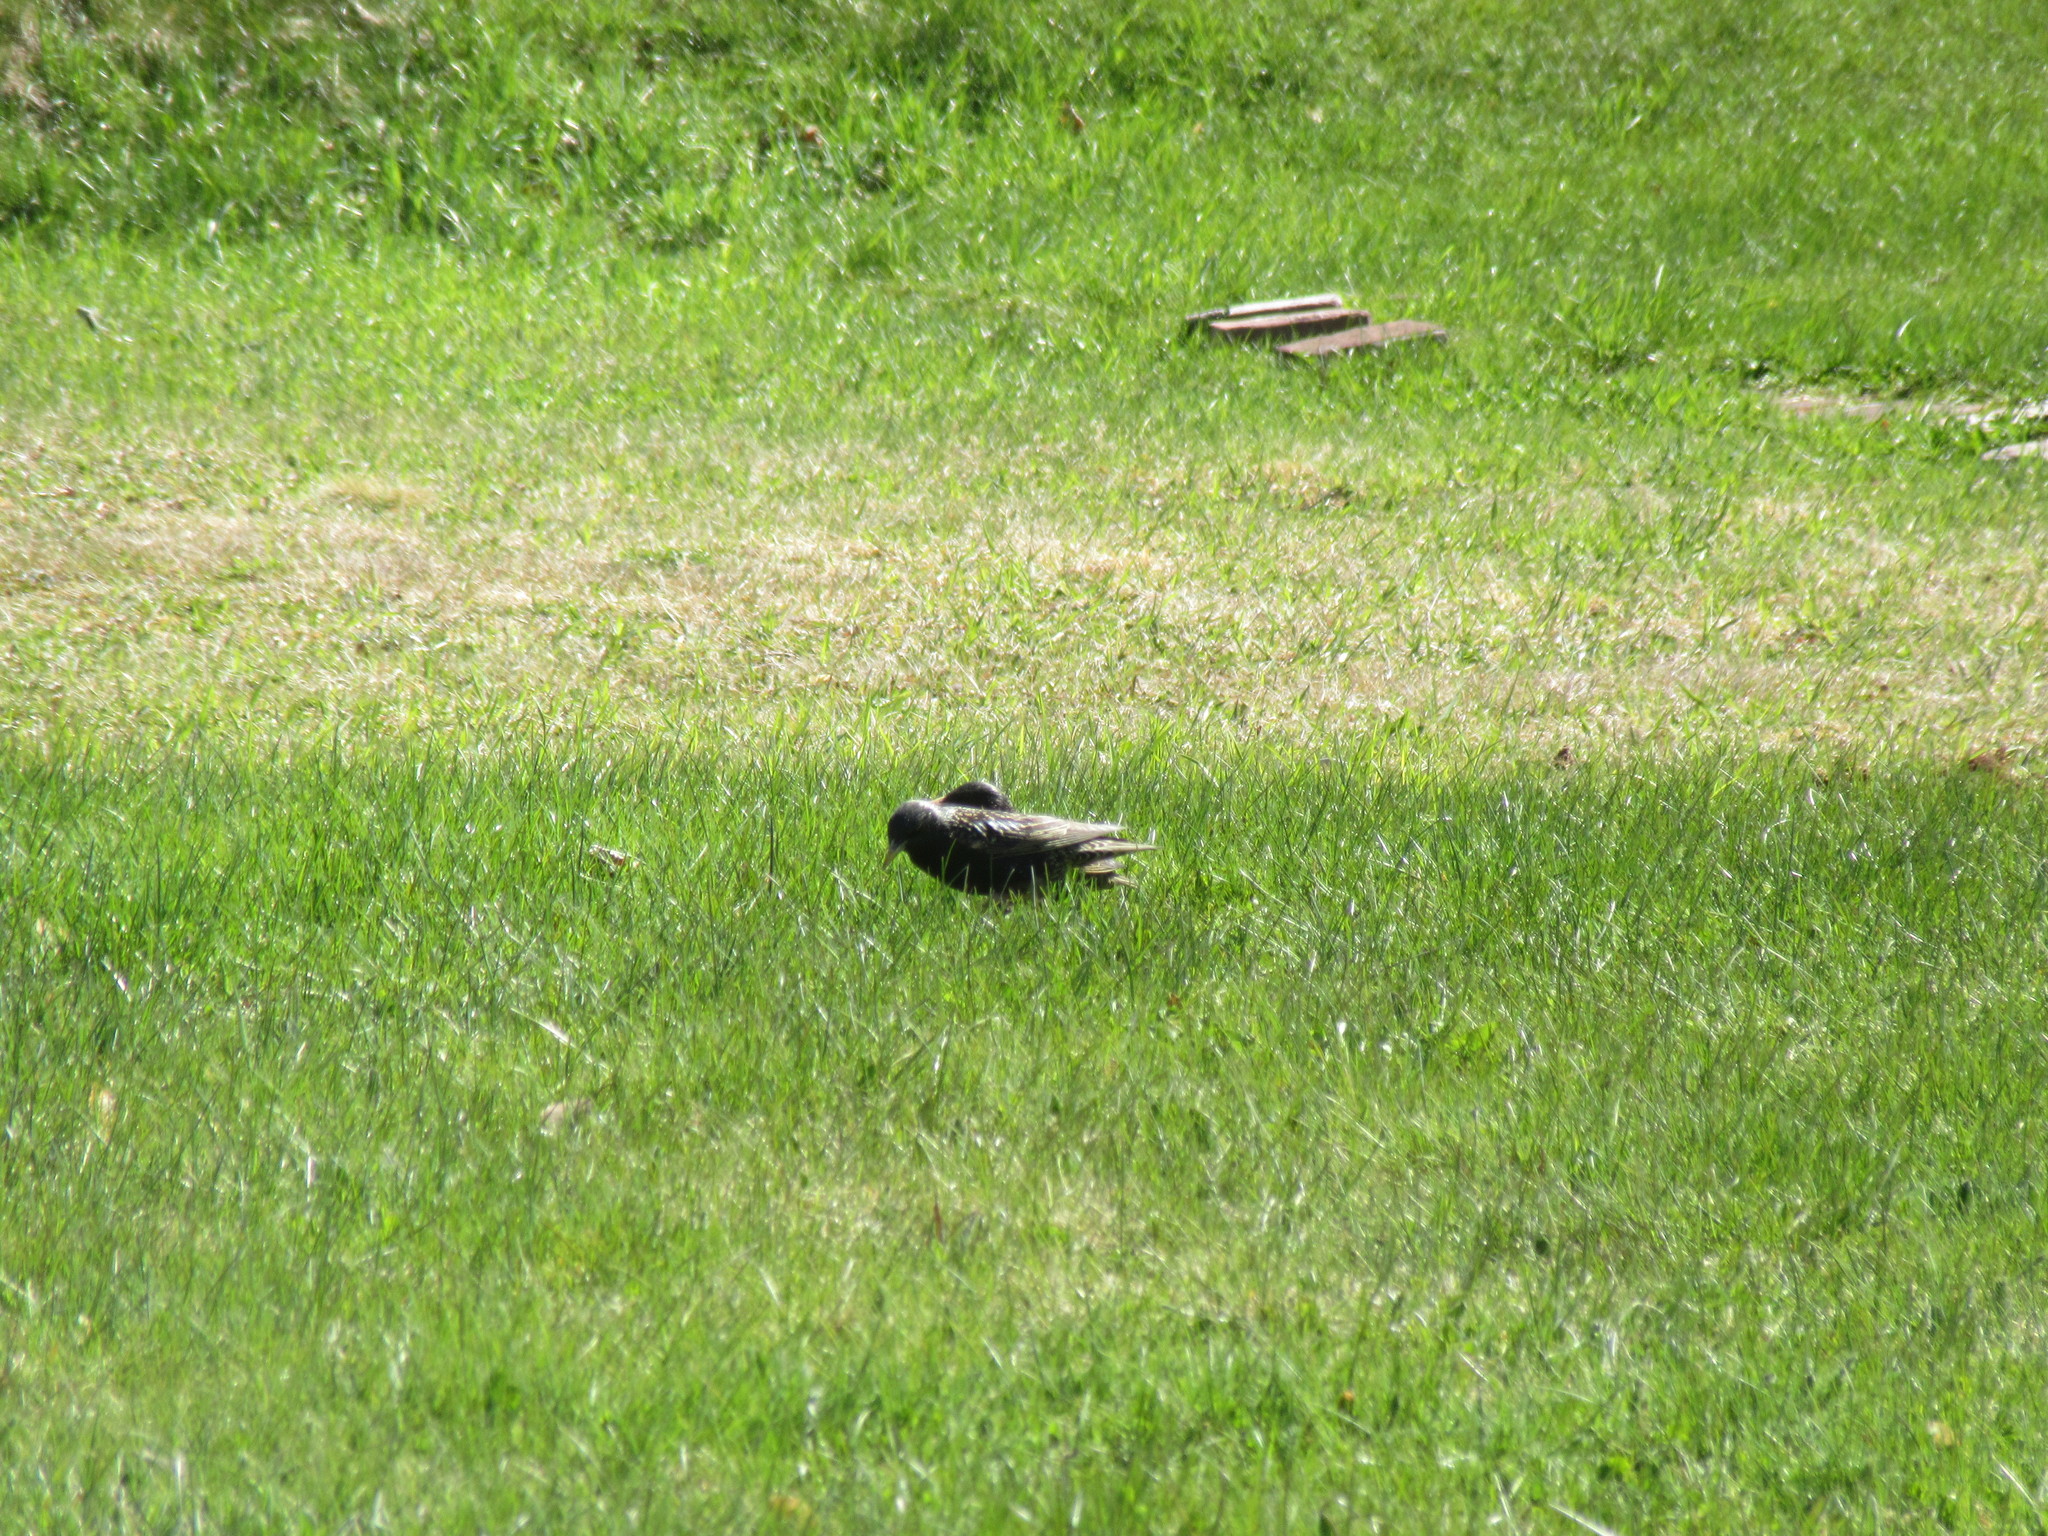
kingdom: Animalia
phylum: Chordata
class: Aves
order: Passeriformes
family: Sturnidae
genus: Sturnus
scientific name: Sturnus vulgaris
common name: Common starling
